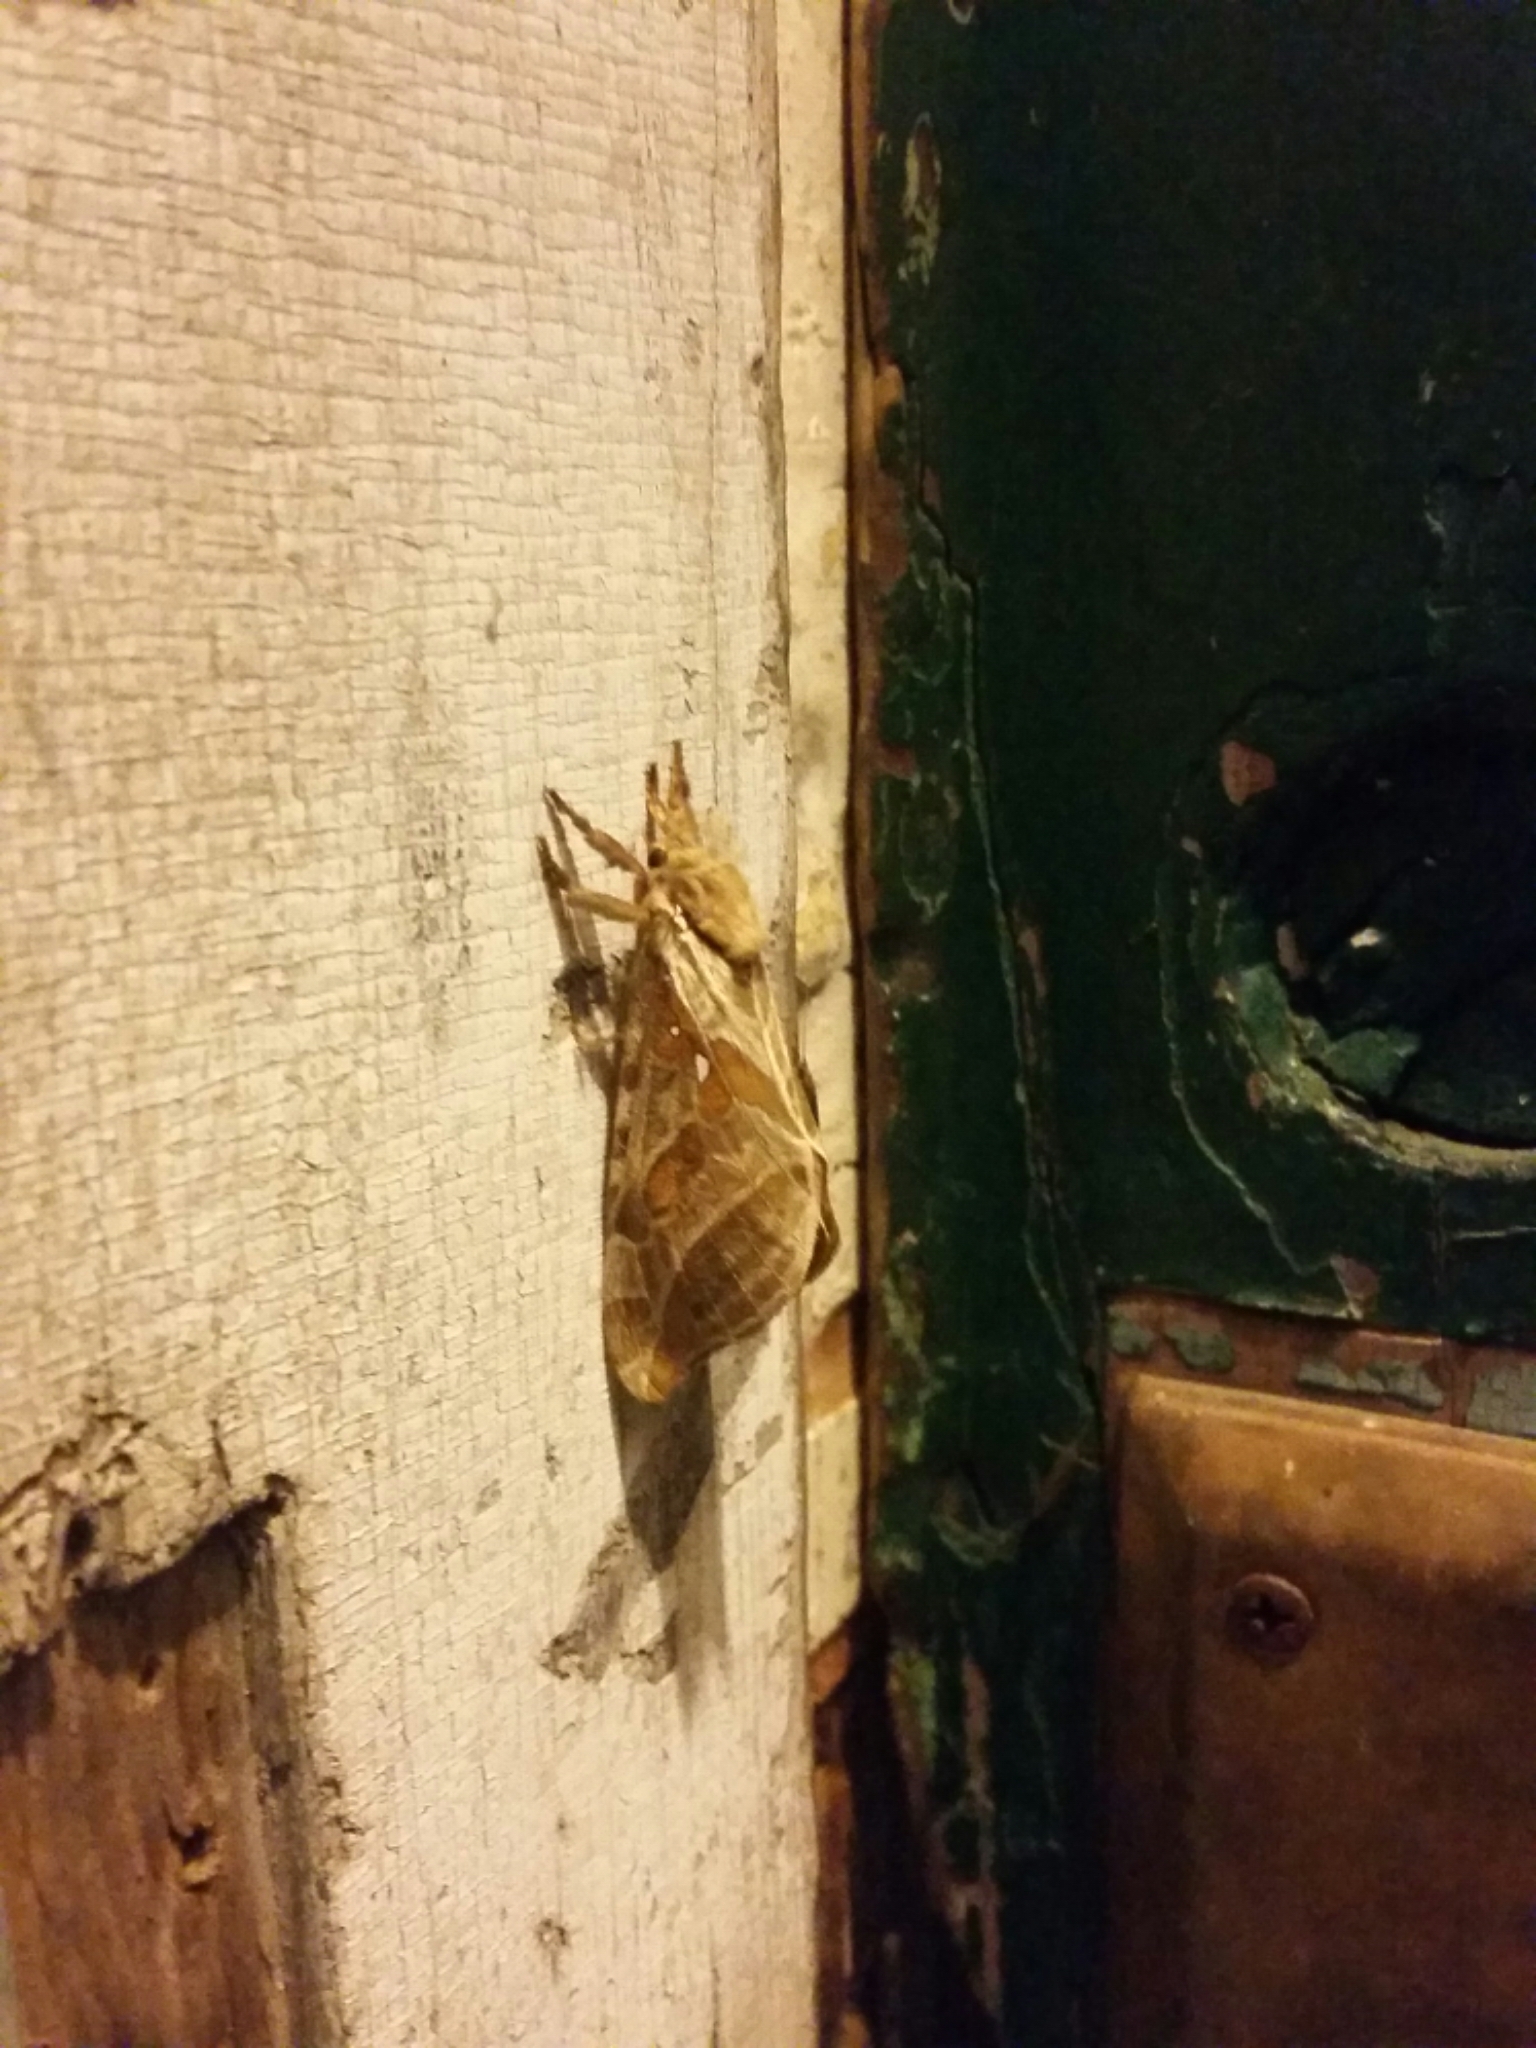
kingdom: Animalia
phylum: Arthropoda
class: Insecta
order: Lepidoptera
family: Hepialidae
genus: Sthenopis
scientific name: Sthenopis argenteomaculatus
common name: Silver-spotted ghost moth
